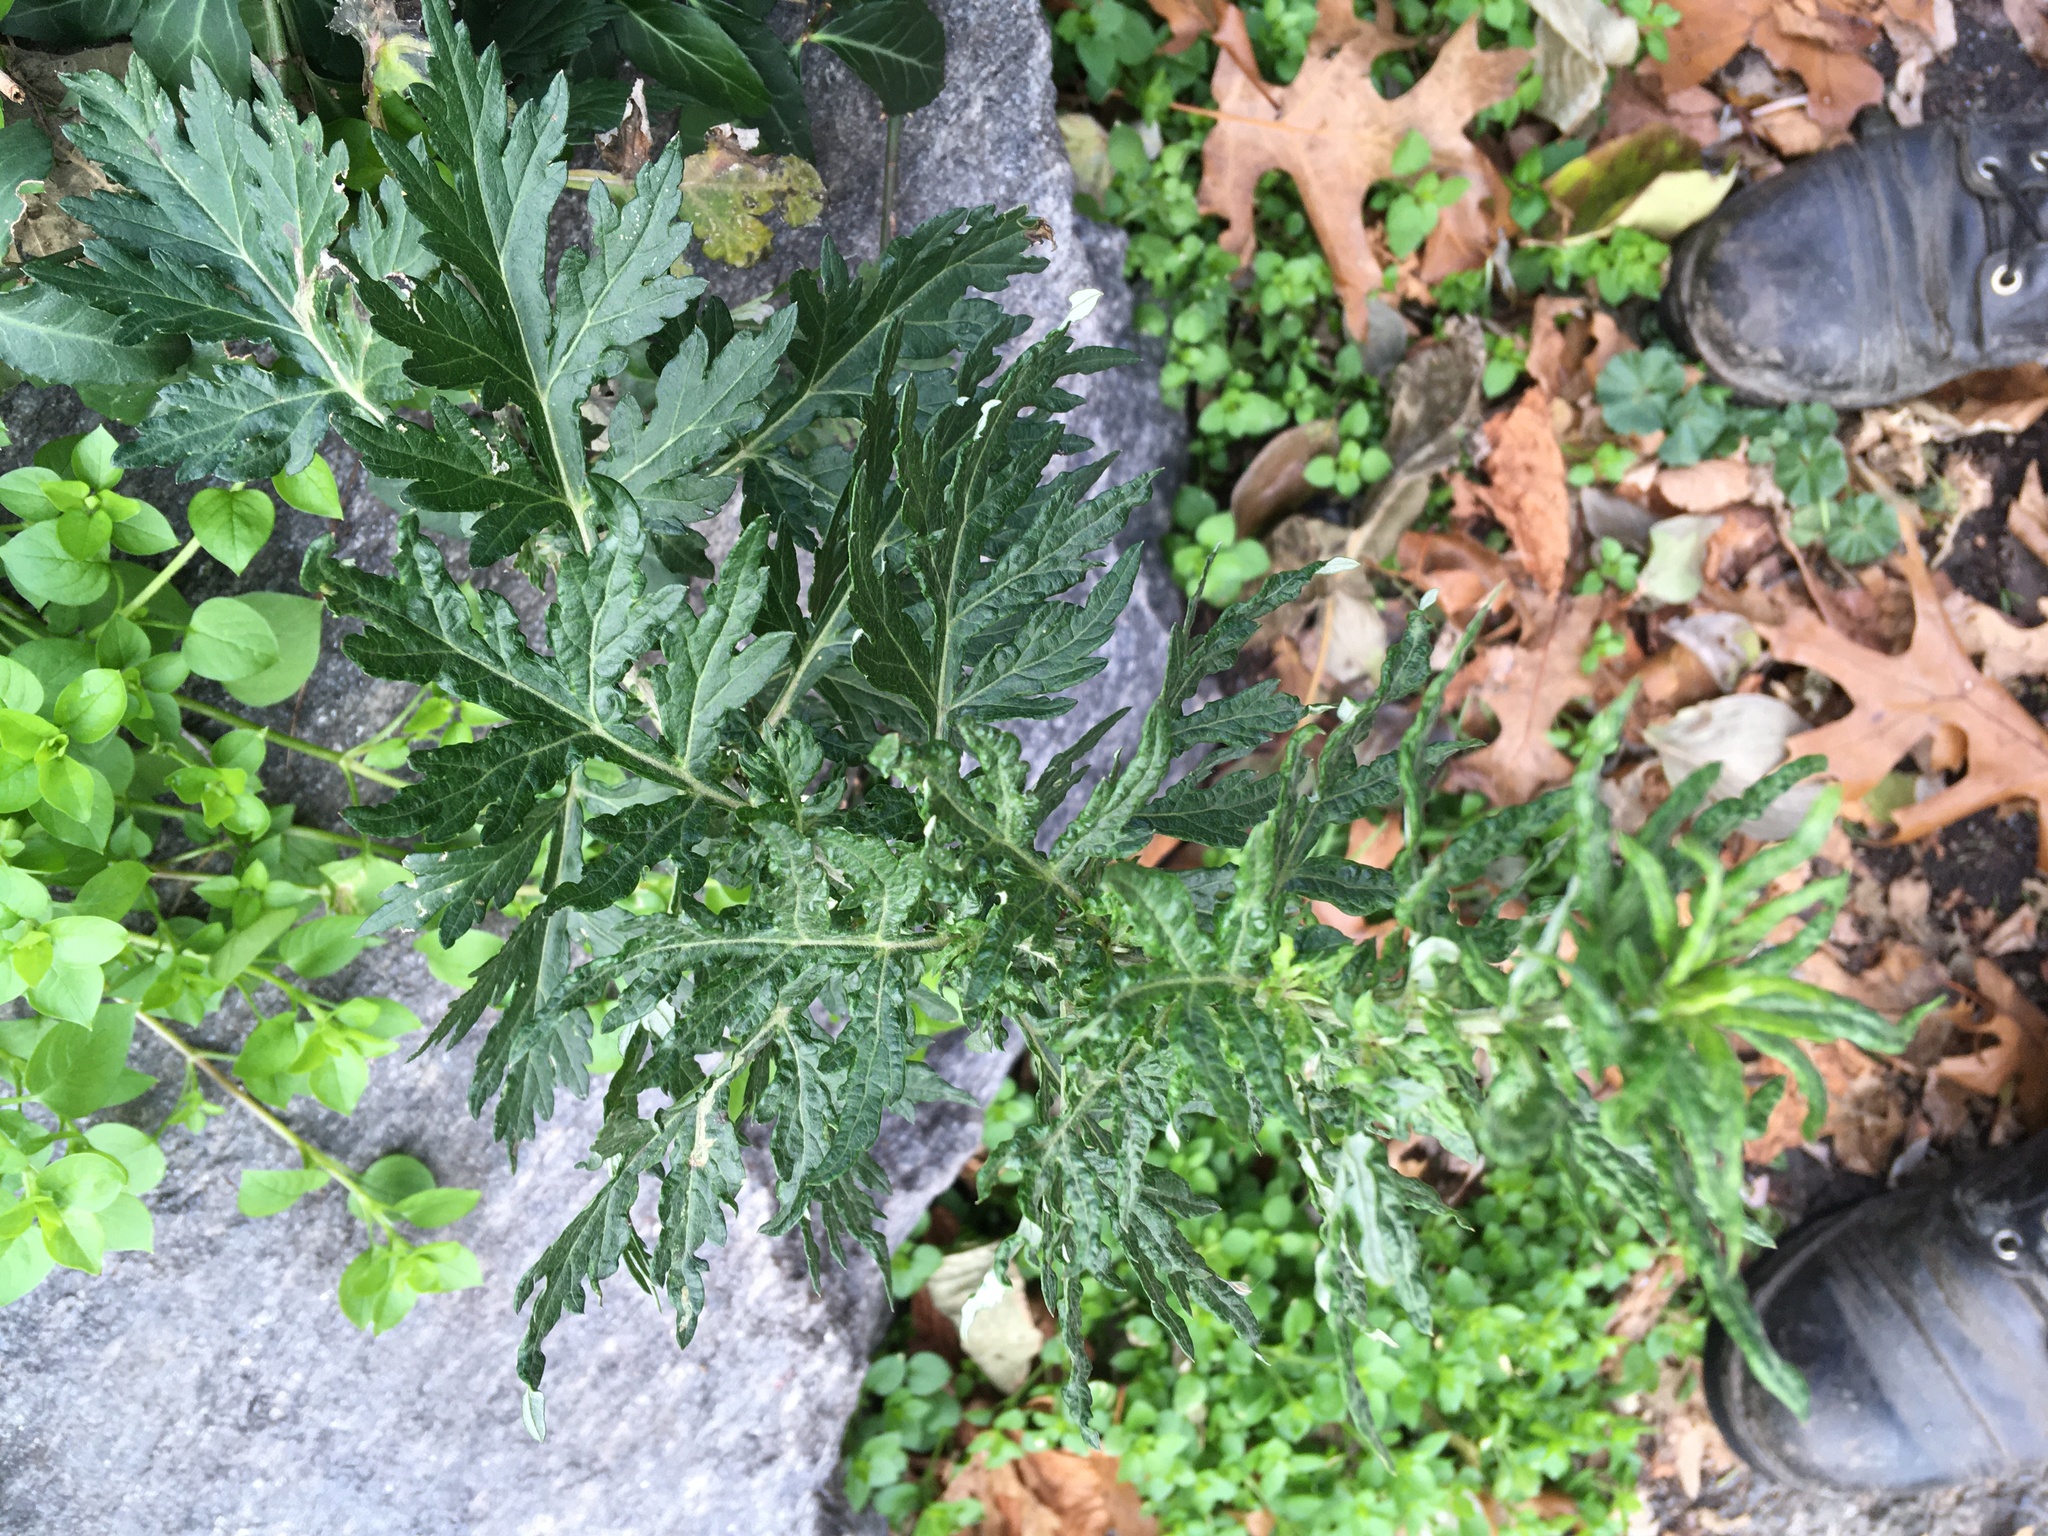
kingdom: Plantae
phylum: Tracheophyta
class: Magnoliopsida
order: Asterales
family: Asteraceae
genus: Artemisia
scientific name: Artemisia vulgaris
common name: Mugwort
